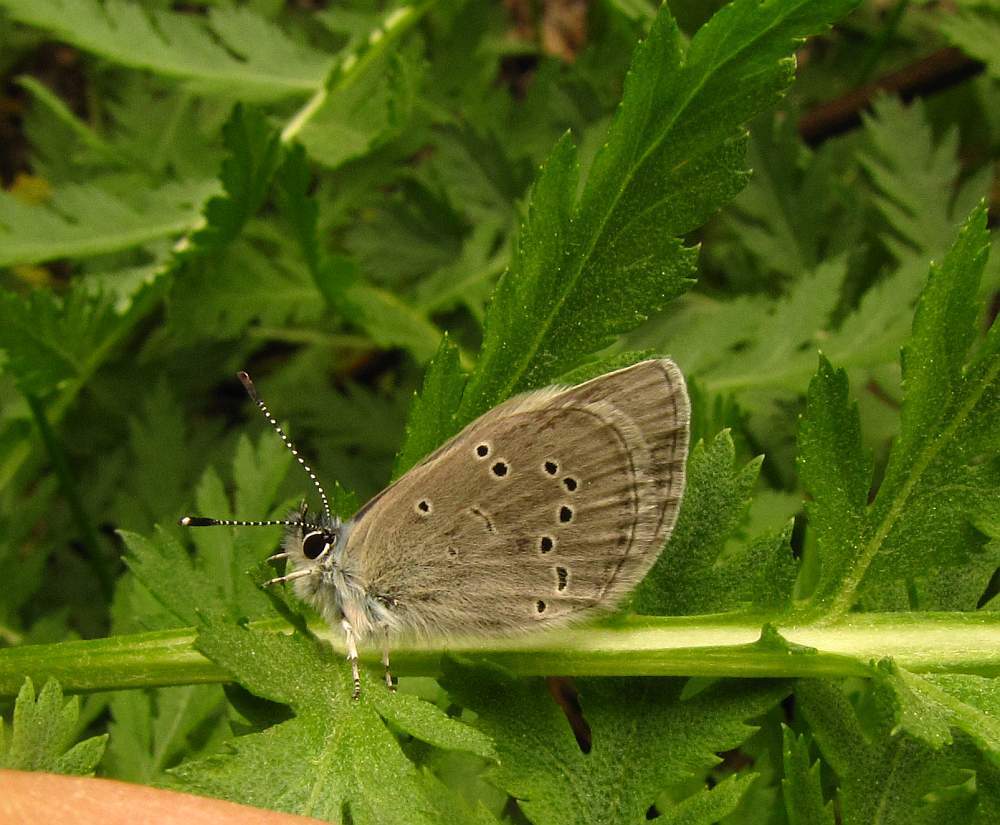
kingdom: Animalia
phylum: Arthropoda
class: Insecta
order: Lepidoptera
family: Lycaenidae
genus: Glaucopsyche
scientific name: Glaucopsyche lygdamus
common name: Silvery blue
